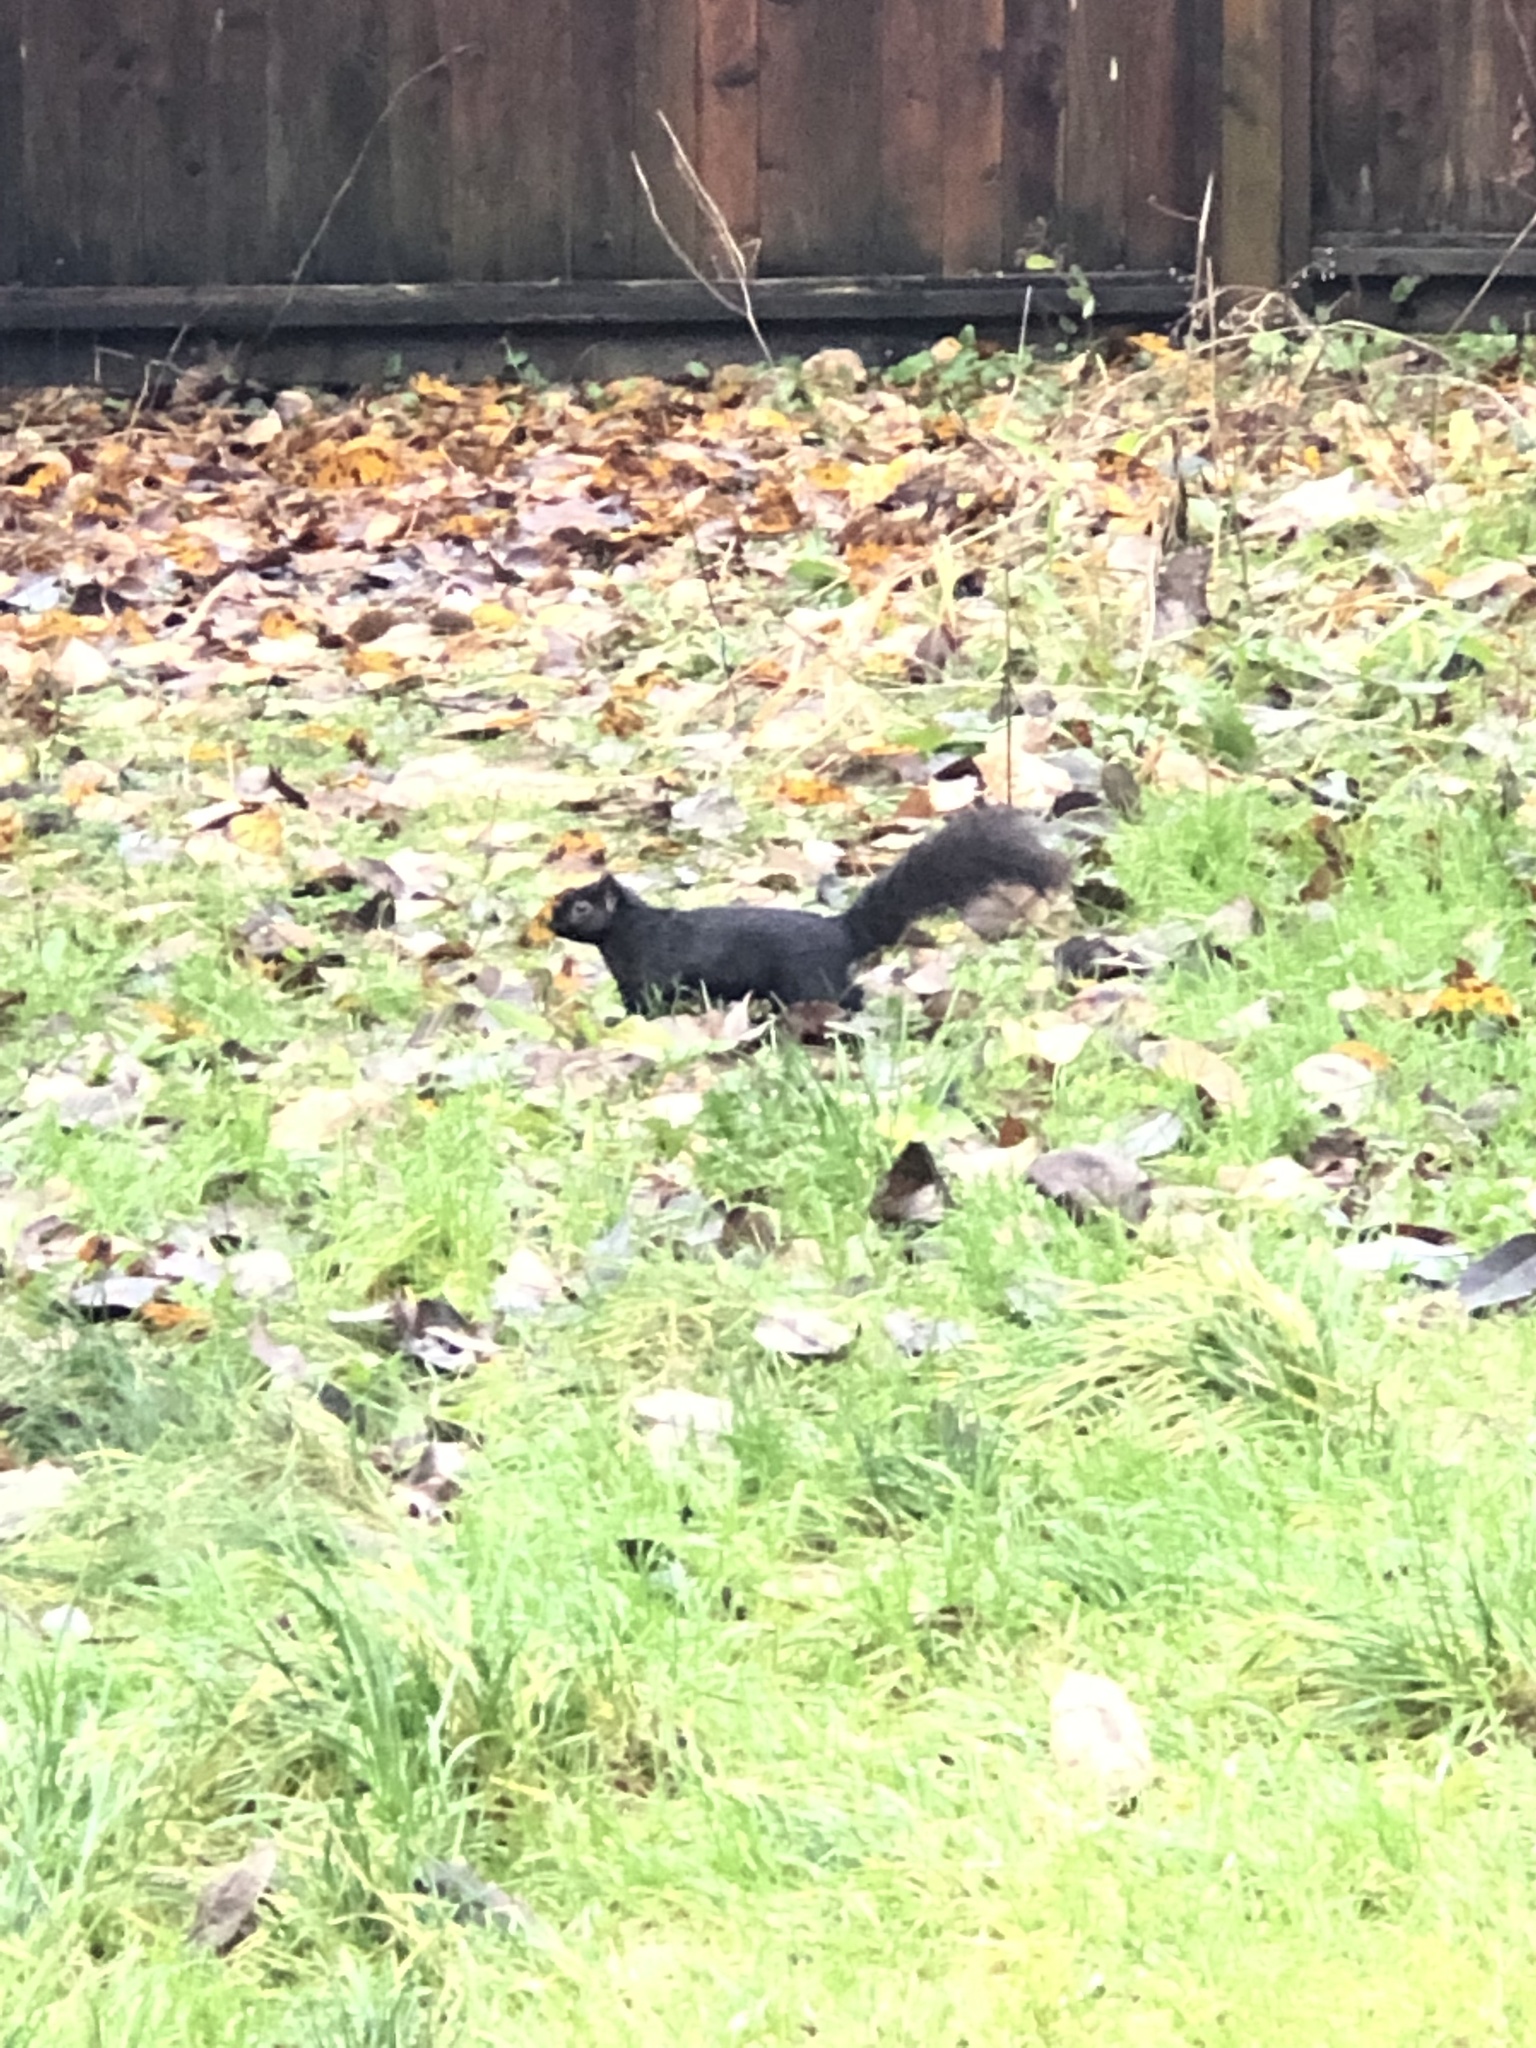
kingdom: Animalia
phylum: Chordata
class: Mammalia
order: Rodentia
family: Sciuridae
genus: Sciurus
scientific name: Sciurus carolinensis
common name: Eastern gray squirrel
